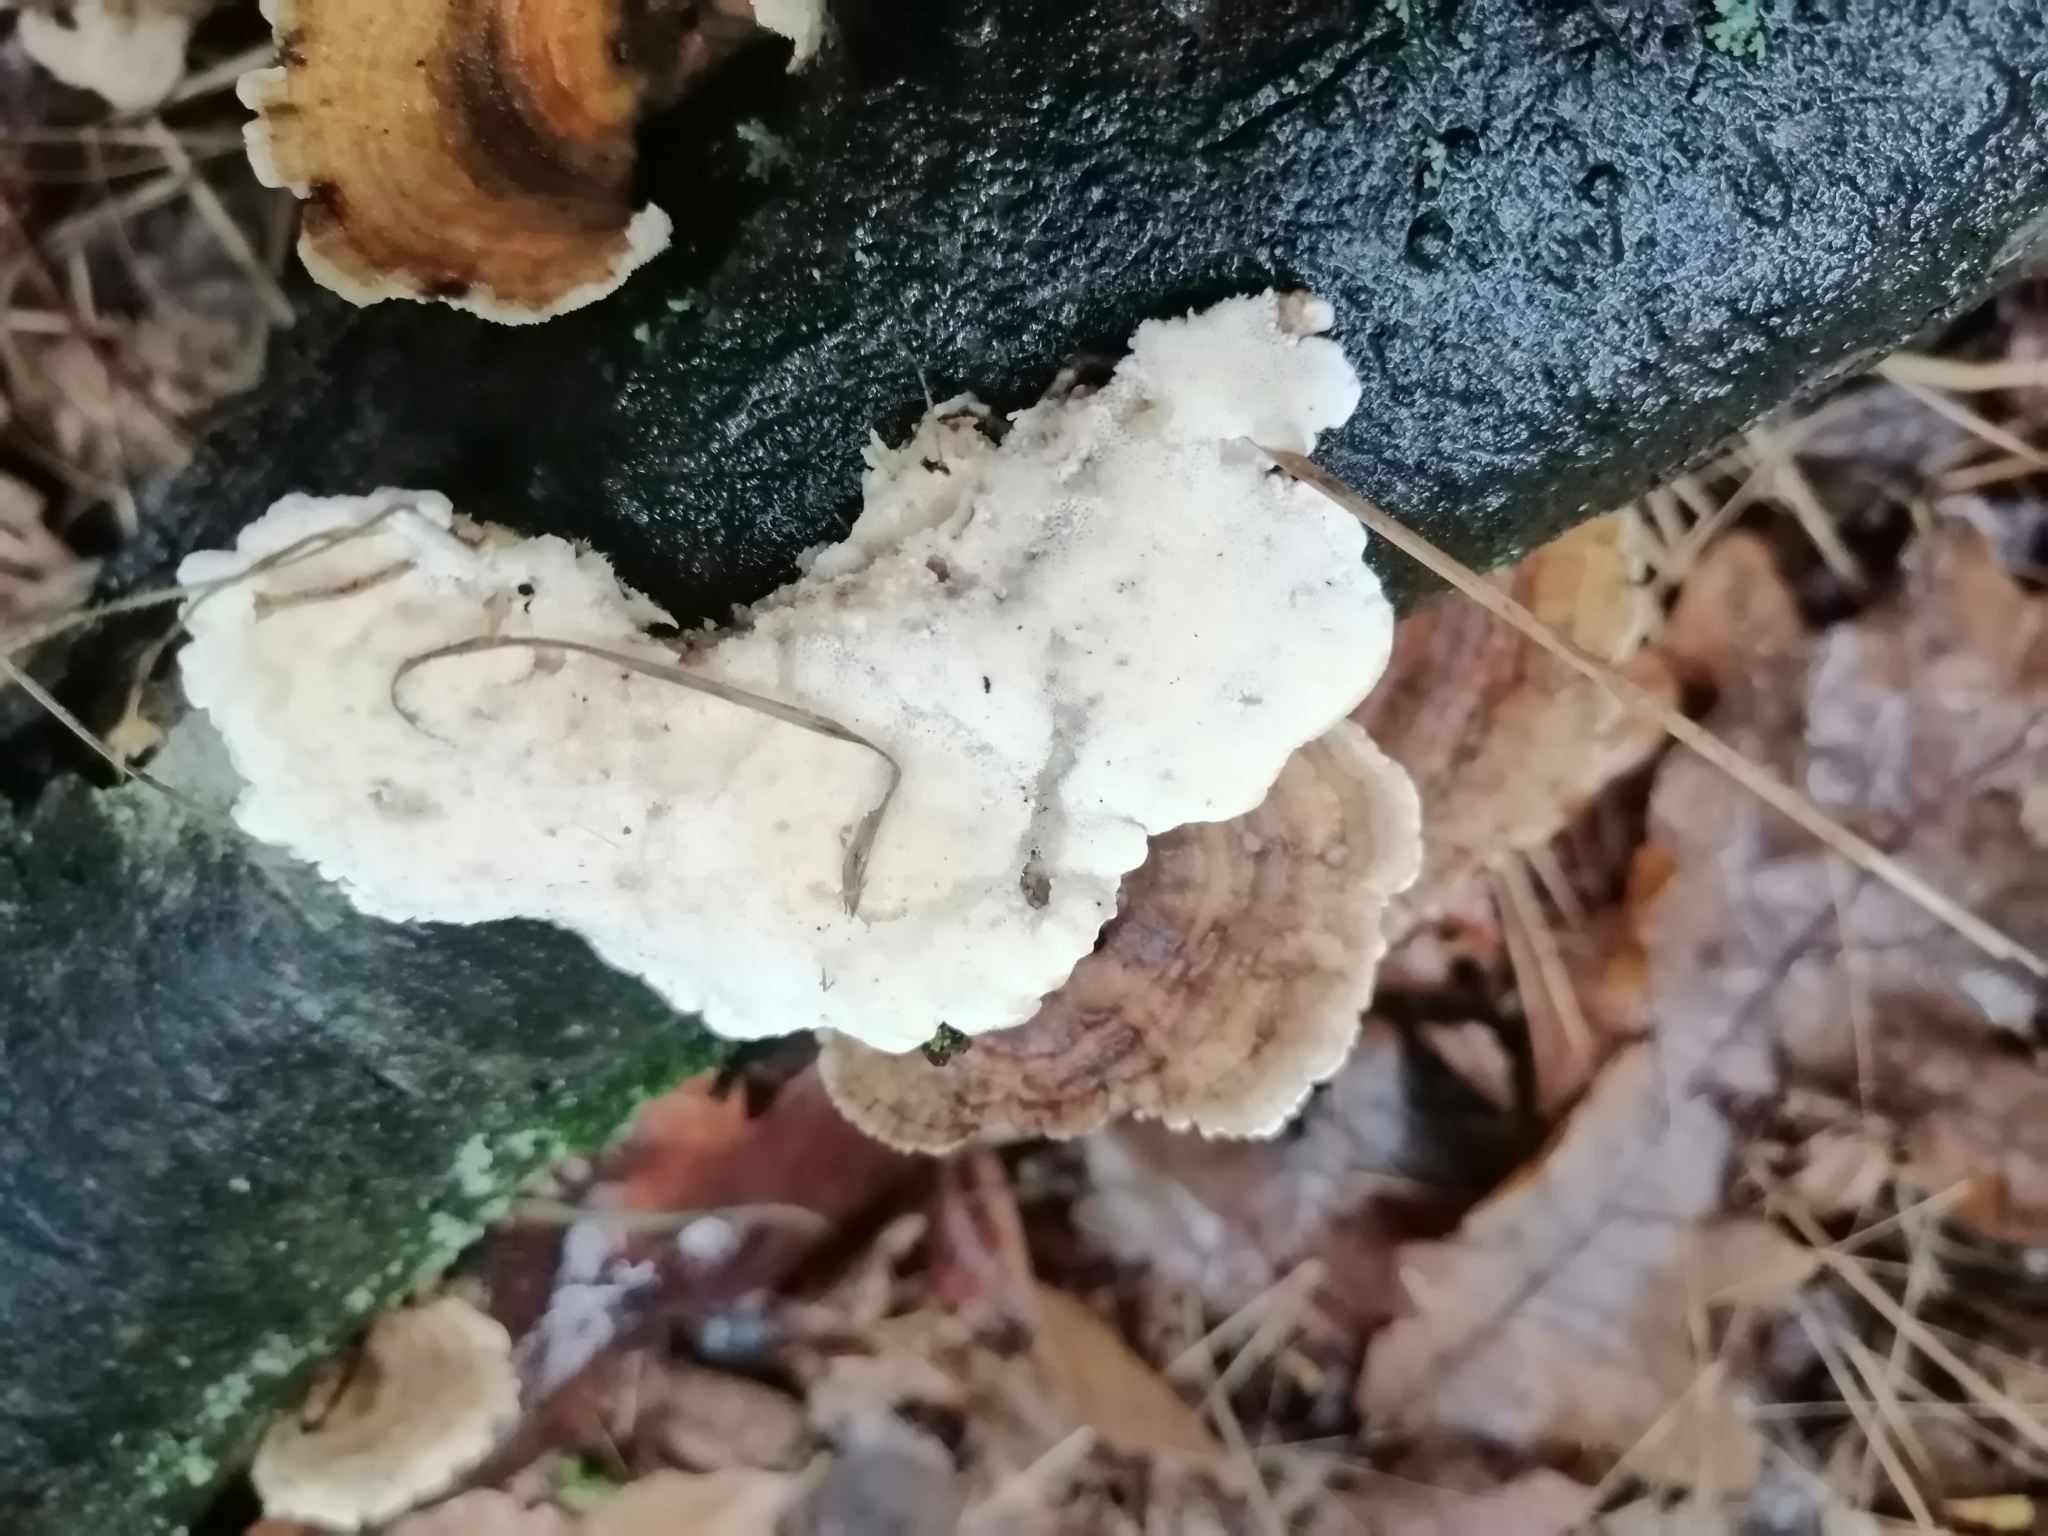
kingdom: Fungi
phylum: Basidiomycota
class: Agaricomycetes
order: Polyporales
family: Polyporaceae
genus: Trametes
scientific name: Trametes versicolor
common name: Turkeytail
